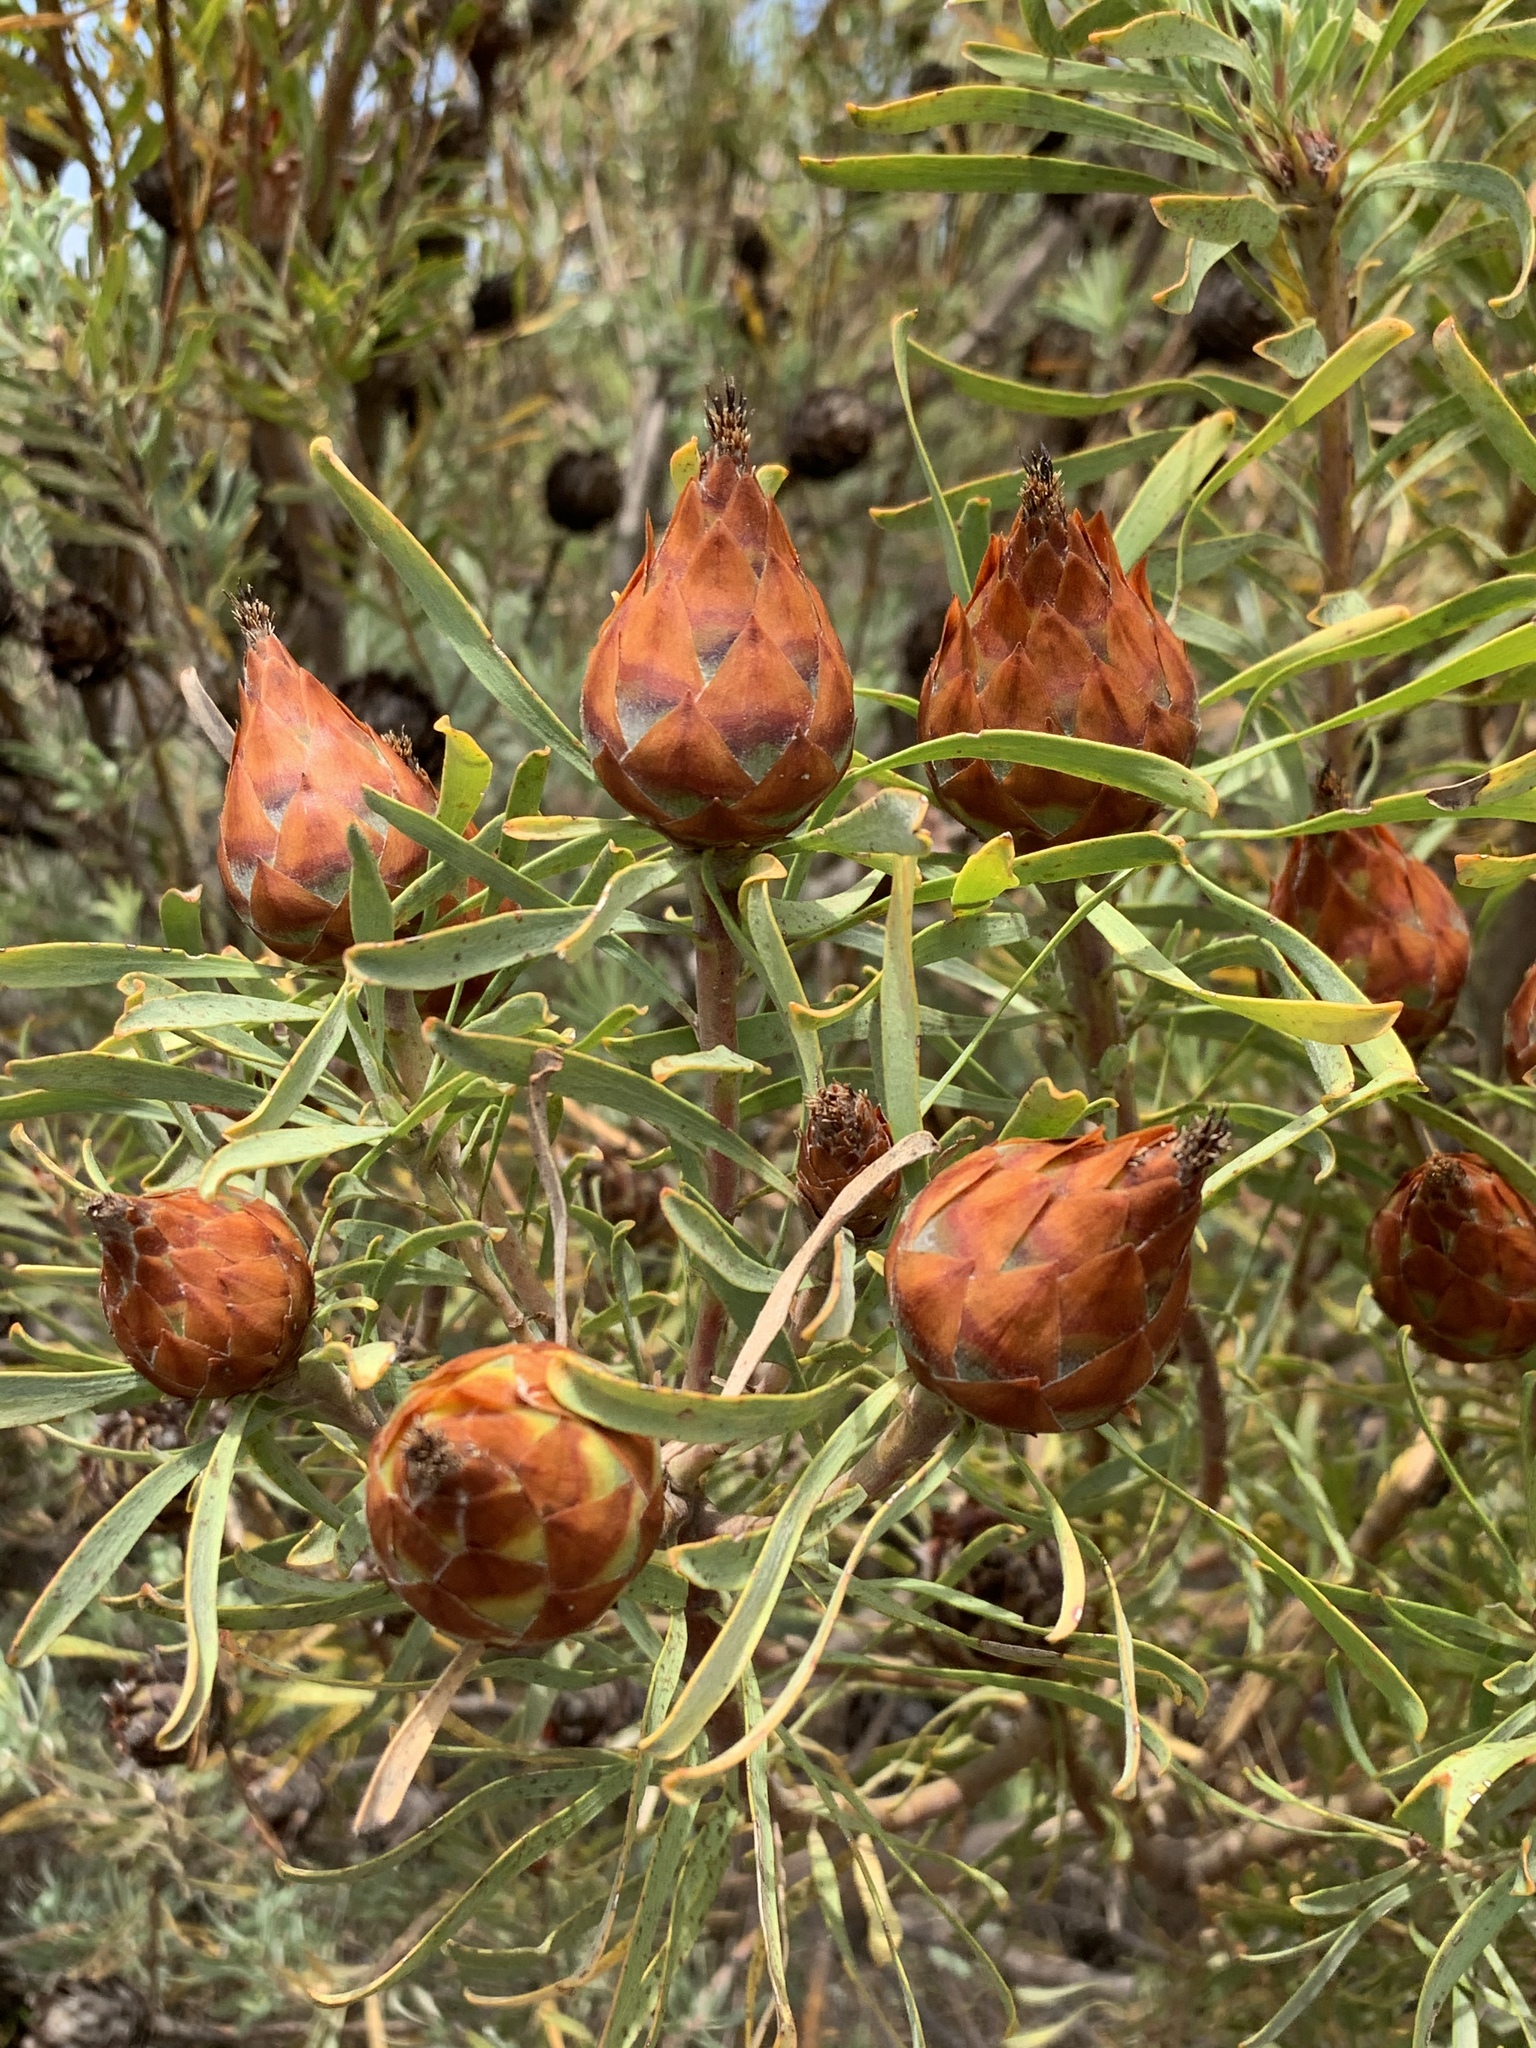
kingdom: Plantae
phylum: Tracheophyta
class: Magnoliopsida
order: Proteales
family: Proteaceae
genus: Leucadendron
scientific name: Leucadendron rubrum
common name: Spinning top
